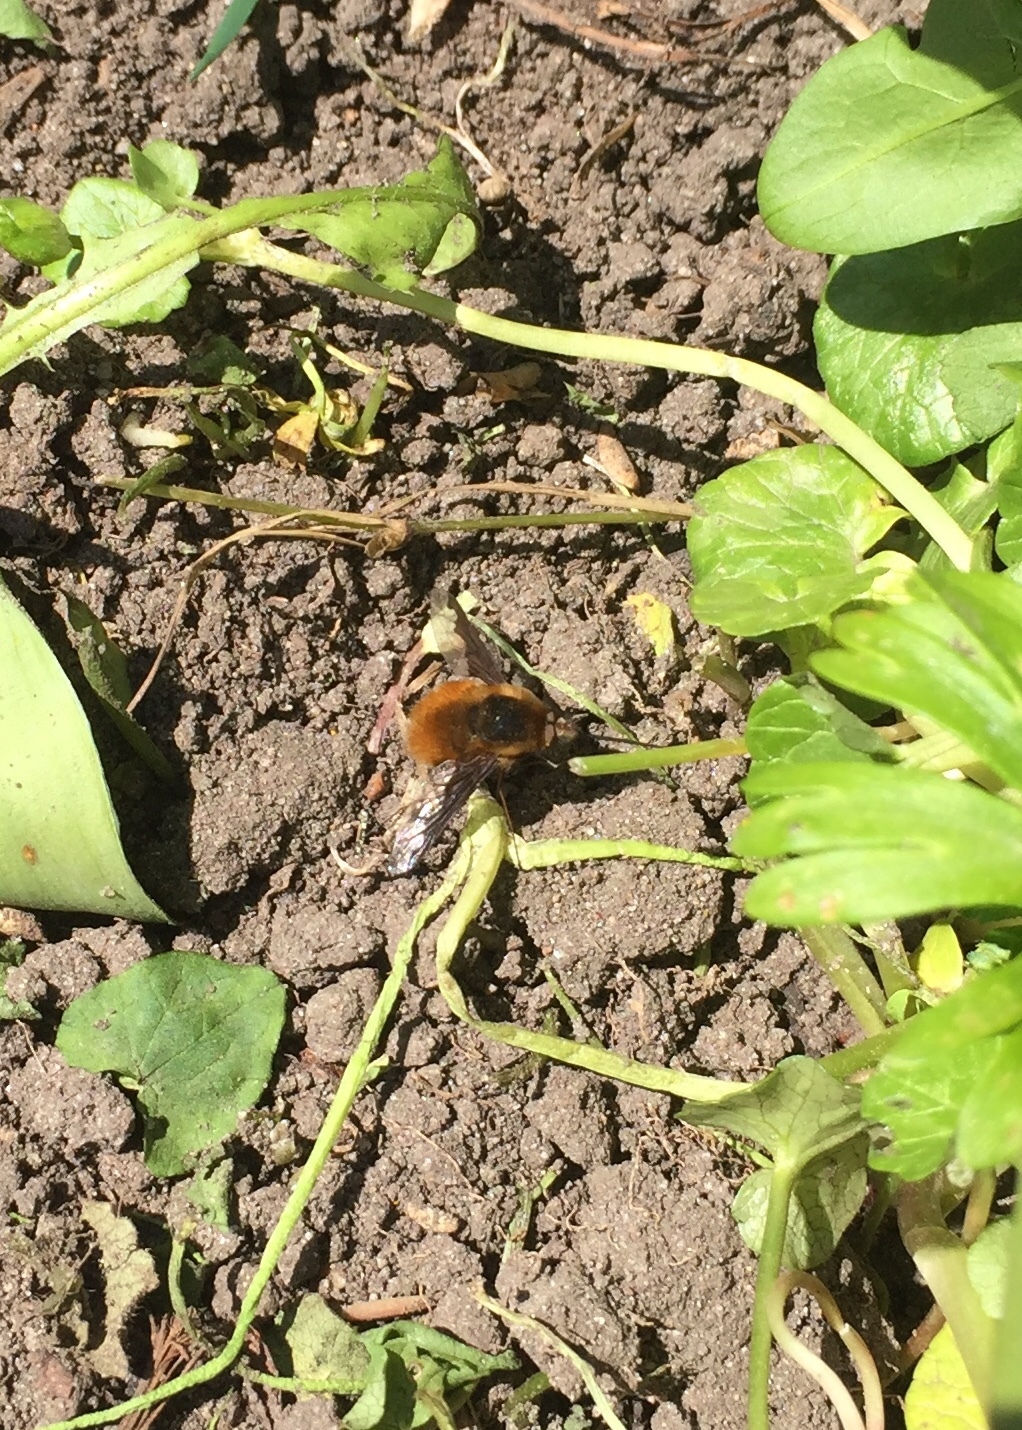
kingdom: Animalia
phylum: Arthropoda
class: Insecta
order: Diptera
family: Bombyliidae
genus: Bombylius
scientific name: Bombylius major
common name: Bee fly
